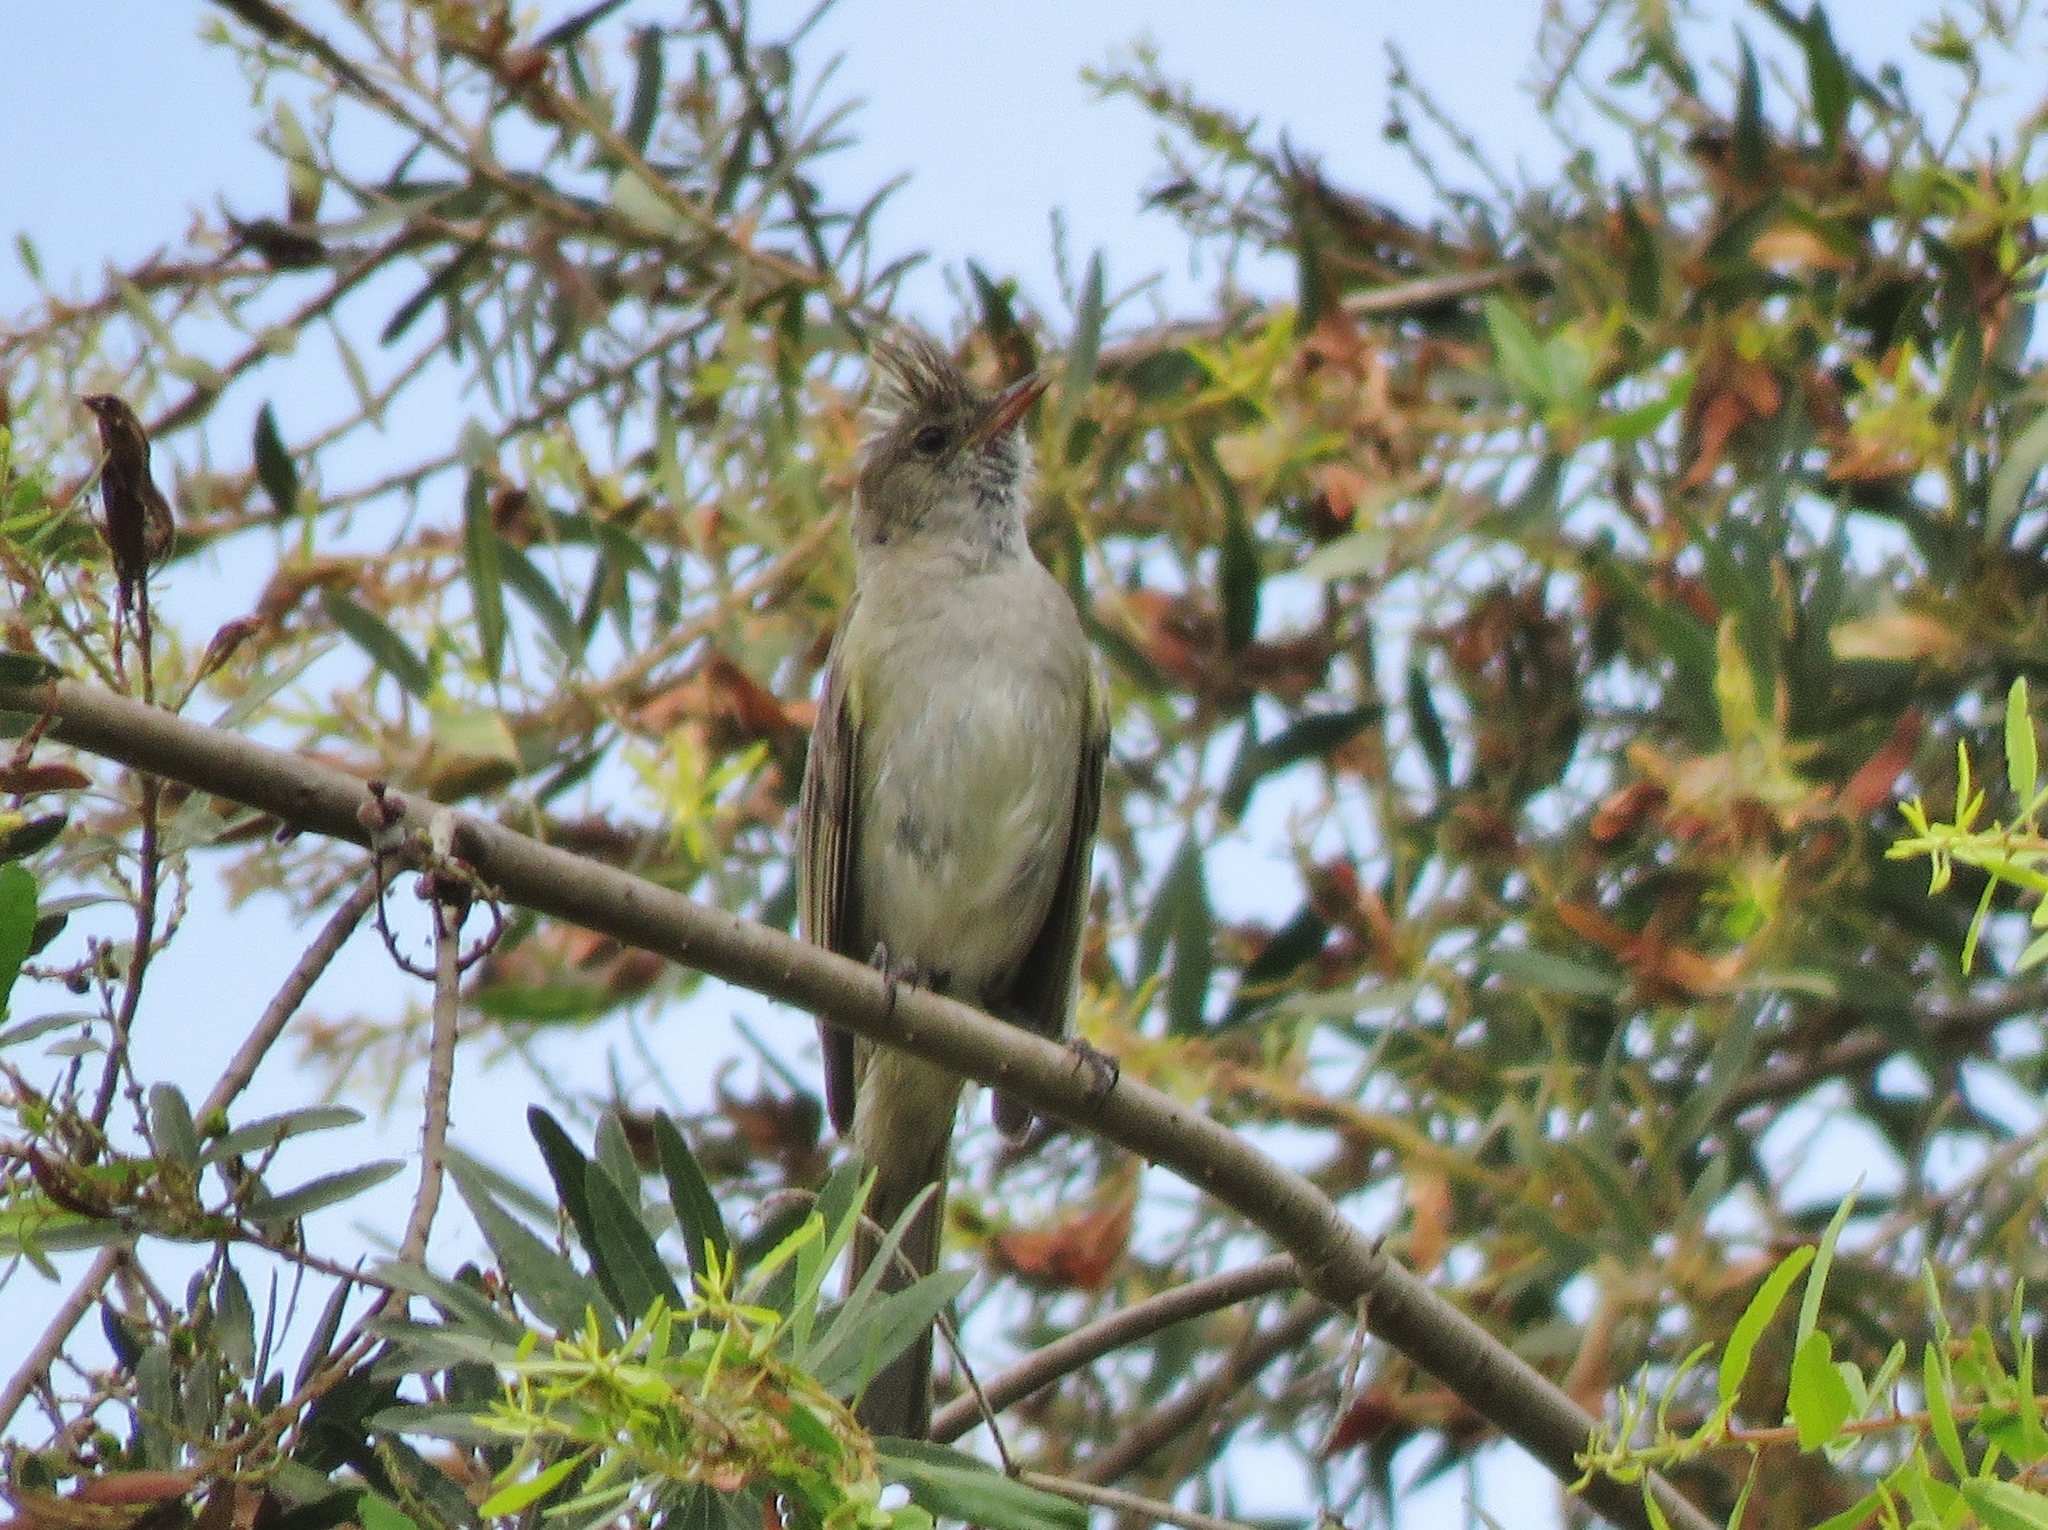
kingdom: Animalia
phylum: Chordata
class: Aves
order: Passeriformes
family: Tyrannidae
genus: Elaenia
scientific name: Elaenia albiceps
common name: White-crested elaenia
